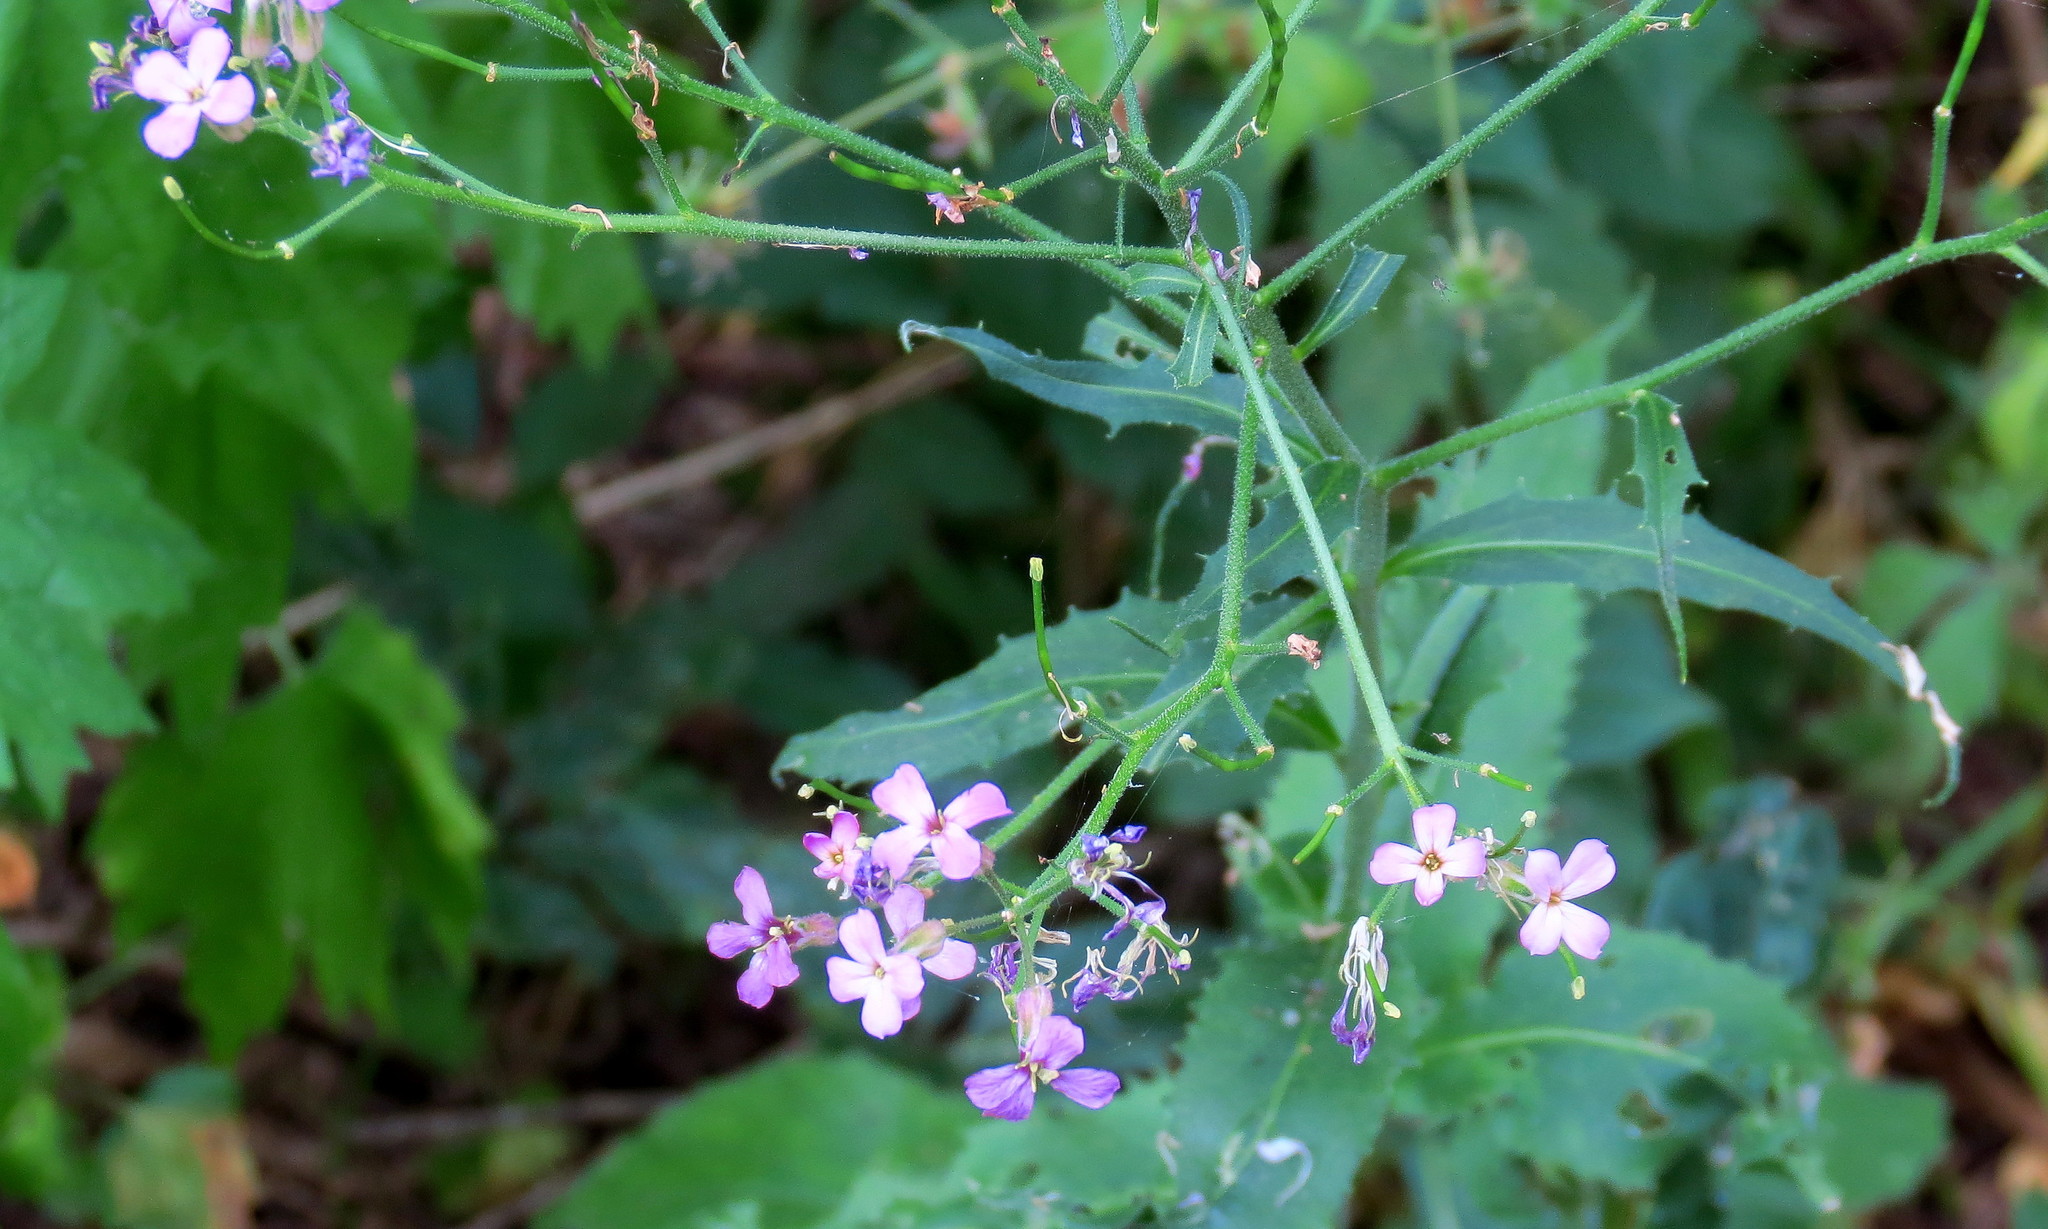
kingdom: Plantae
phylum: Tracheophyta
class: Magnoliopsida
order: Brassicales
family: Brassicaceae
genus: Hesperis
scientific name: Hesperis matronalis
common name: Dame's-violet
